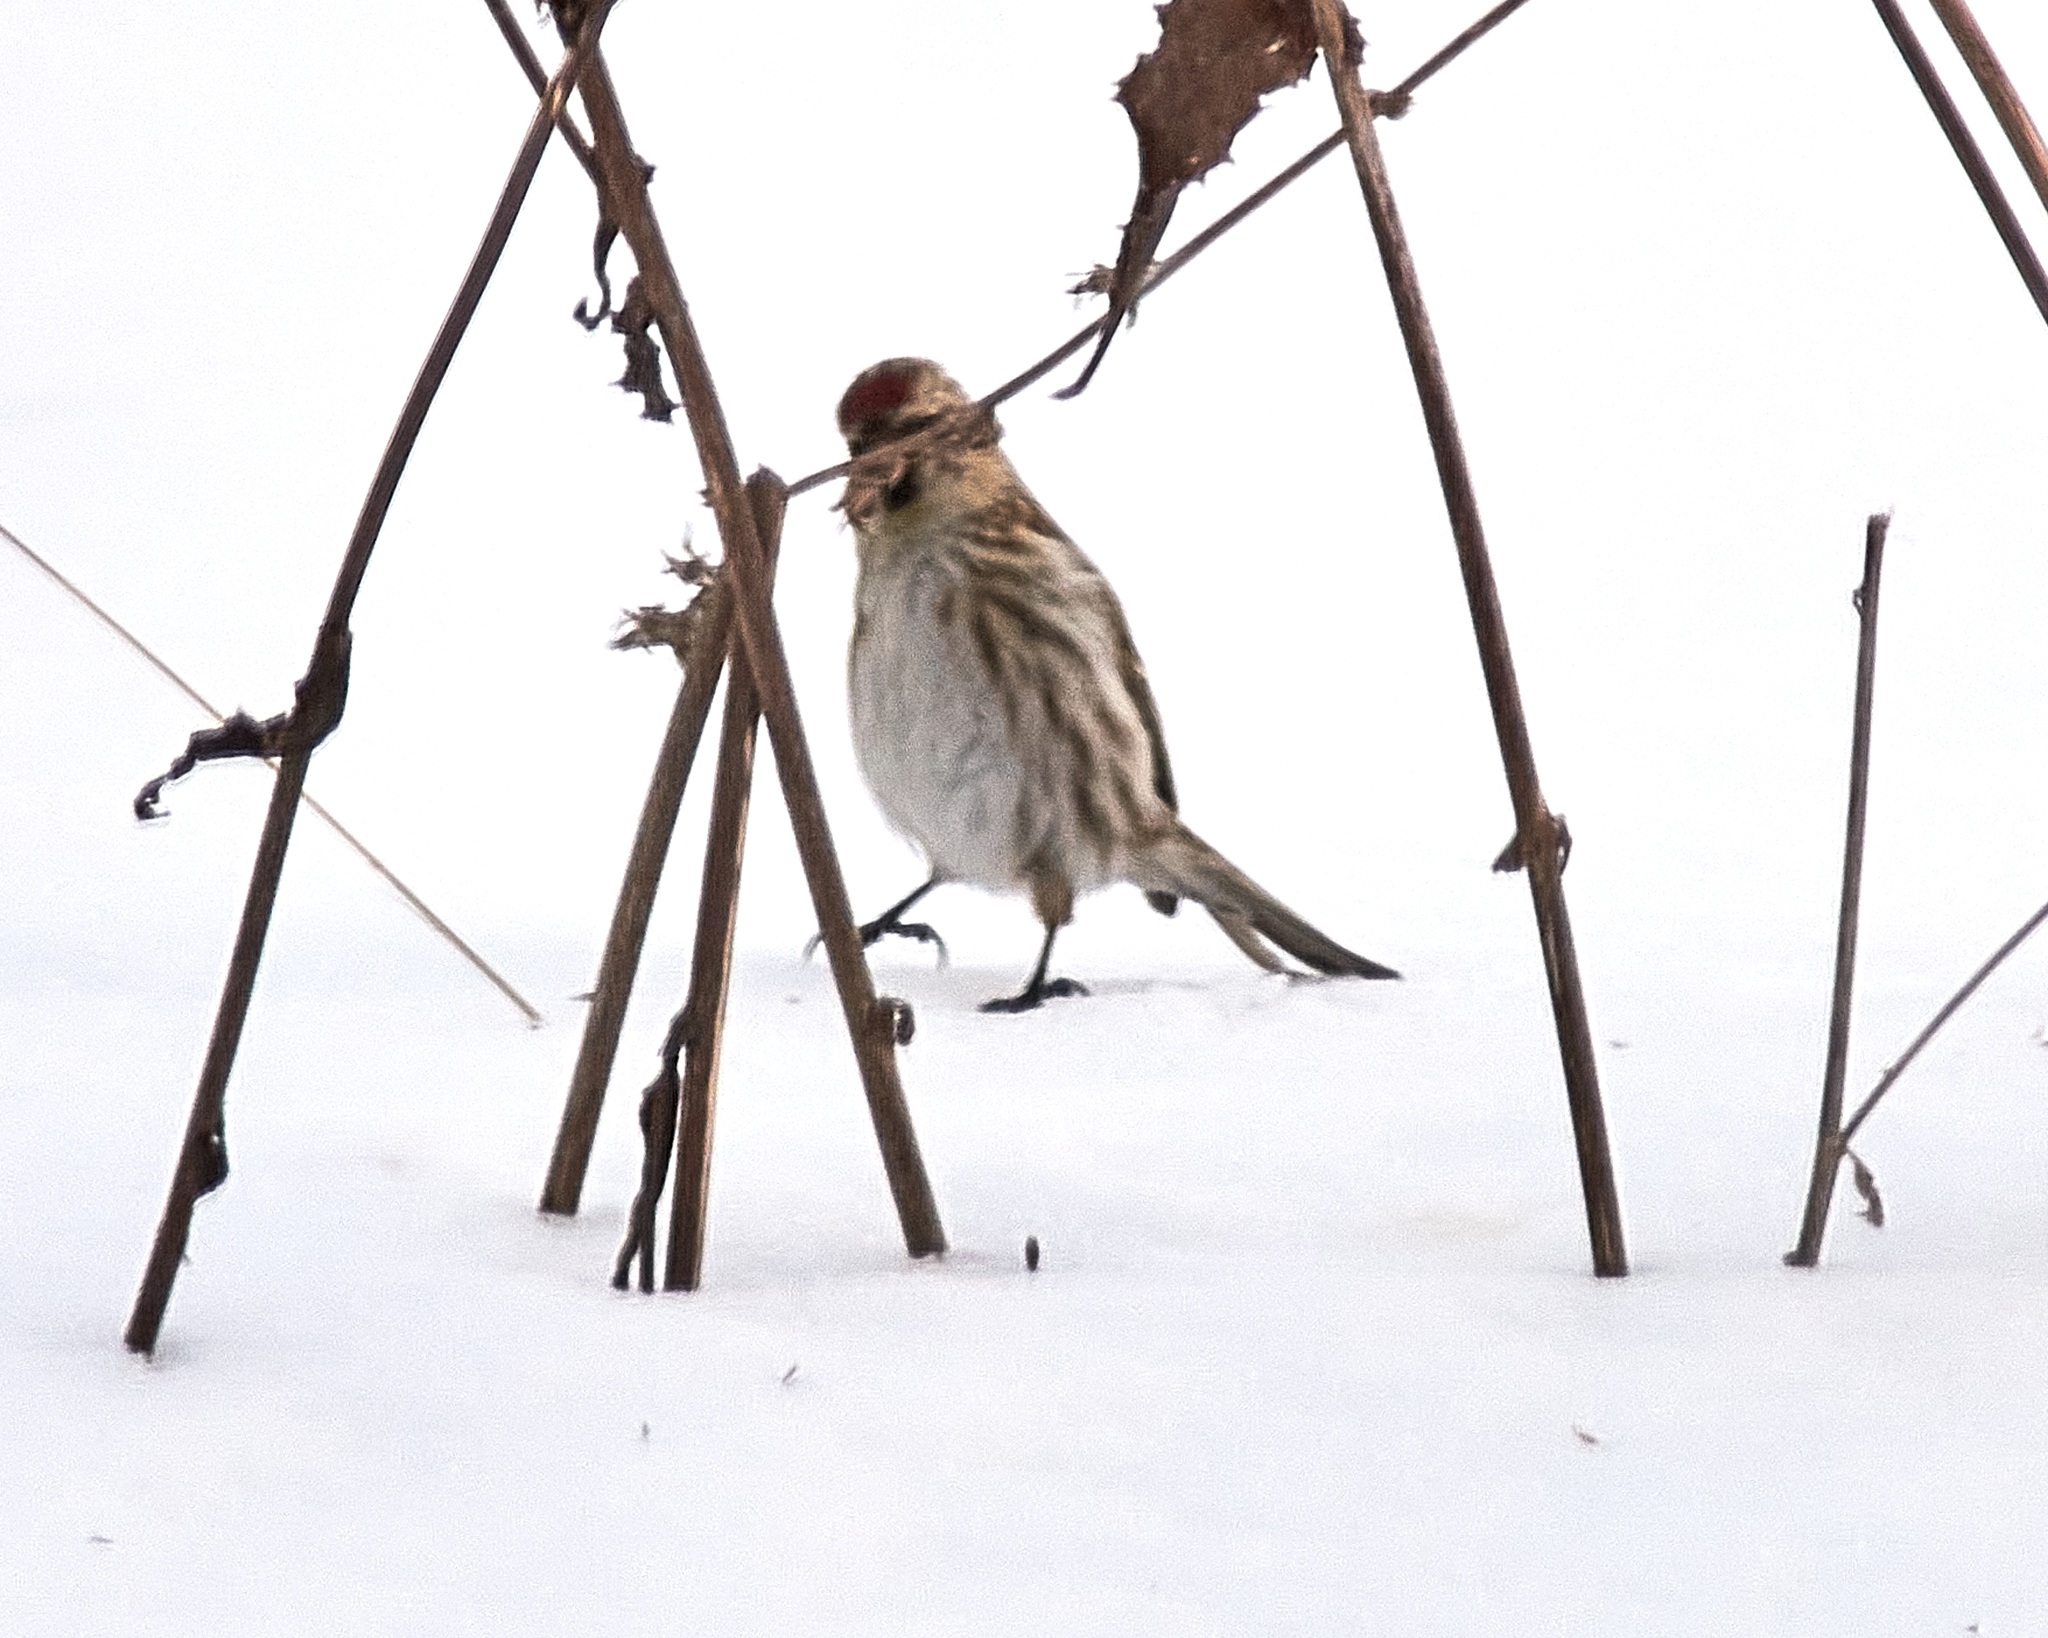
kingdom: Animalia
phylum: Chordata
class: Aves
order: Passeriformes
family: Fringillidae
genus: Acanthis
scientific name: Acanthis flammea
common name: Common redpoll
